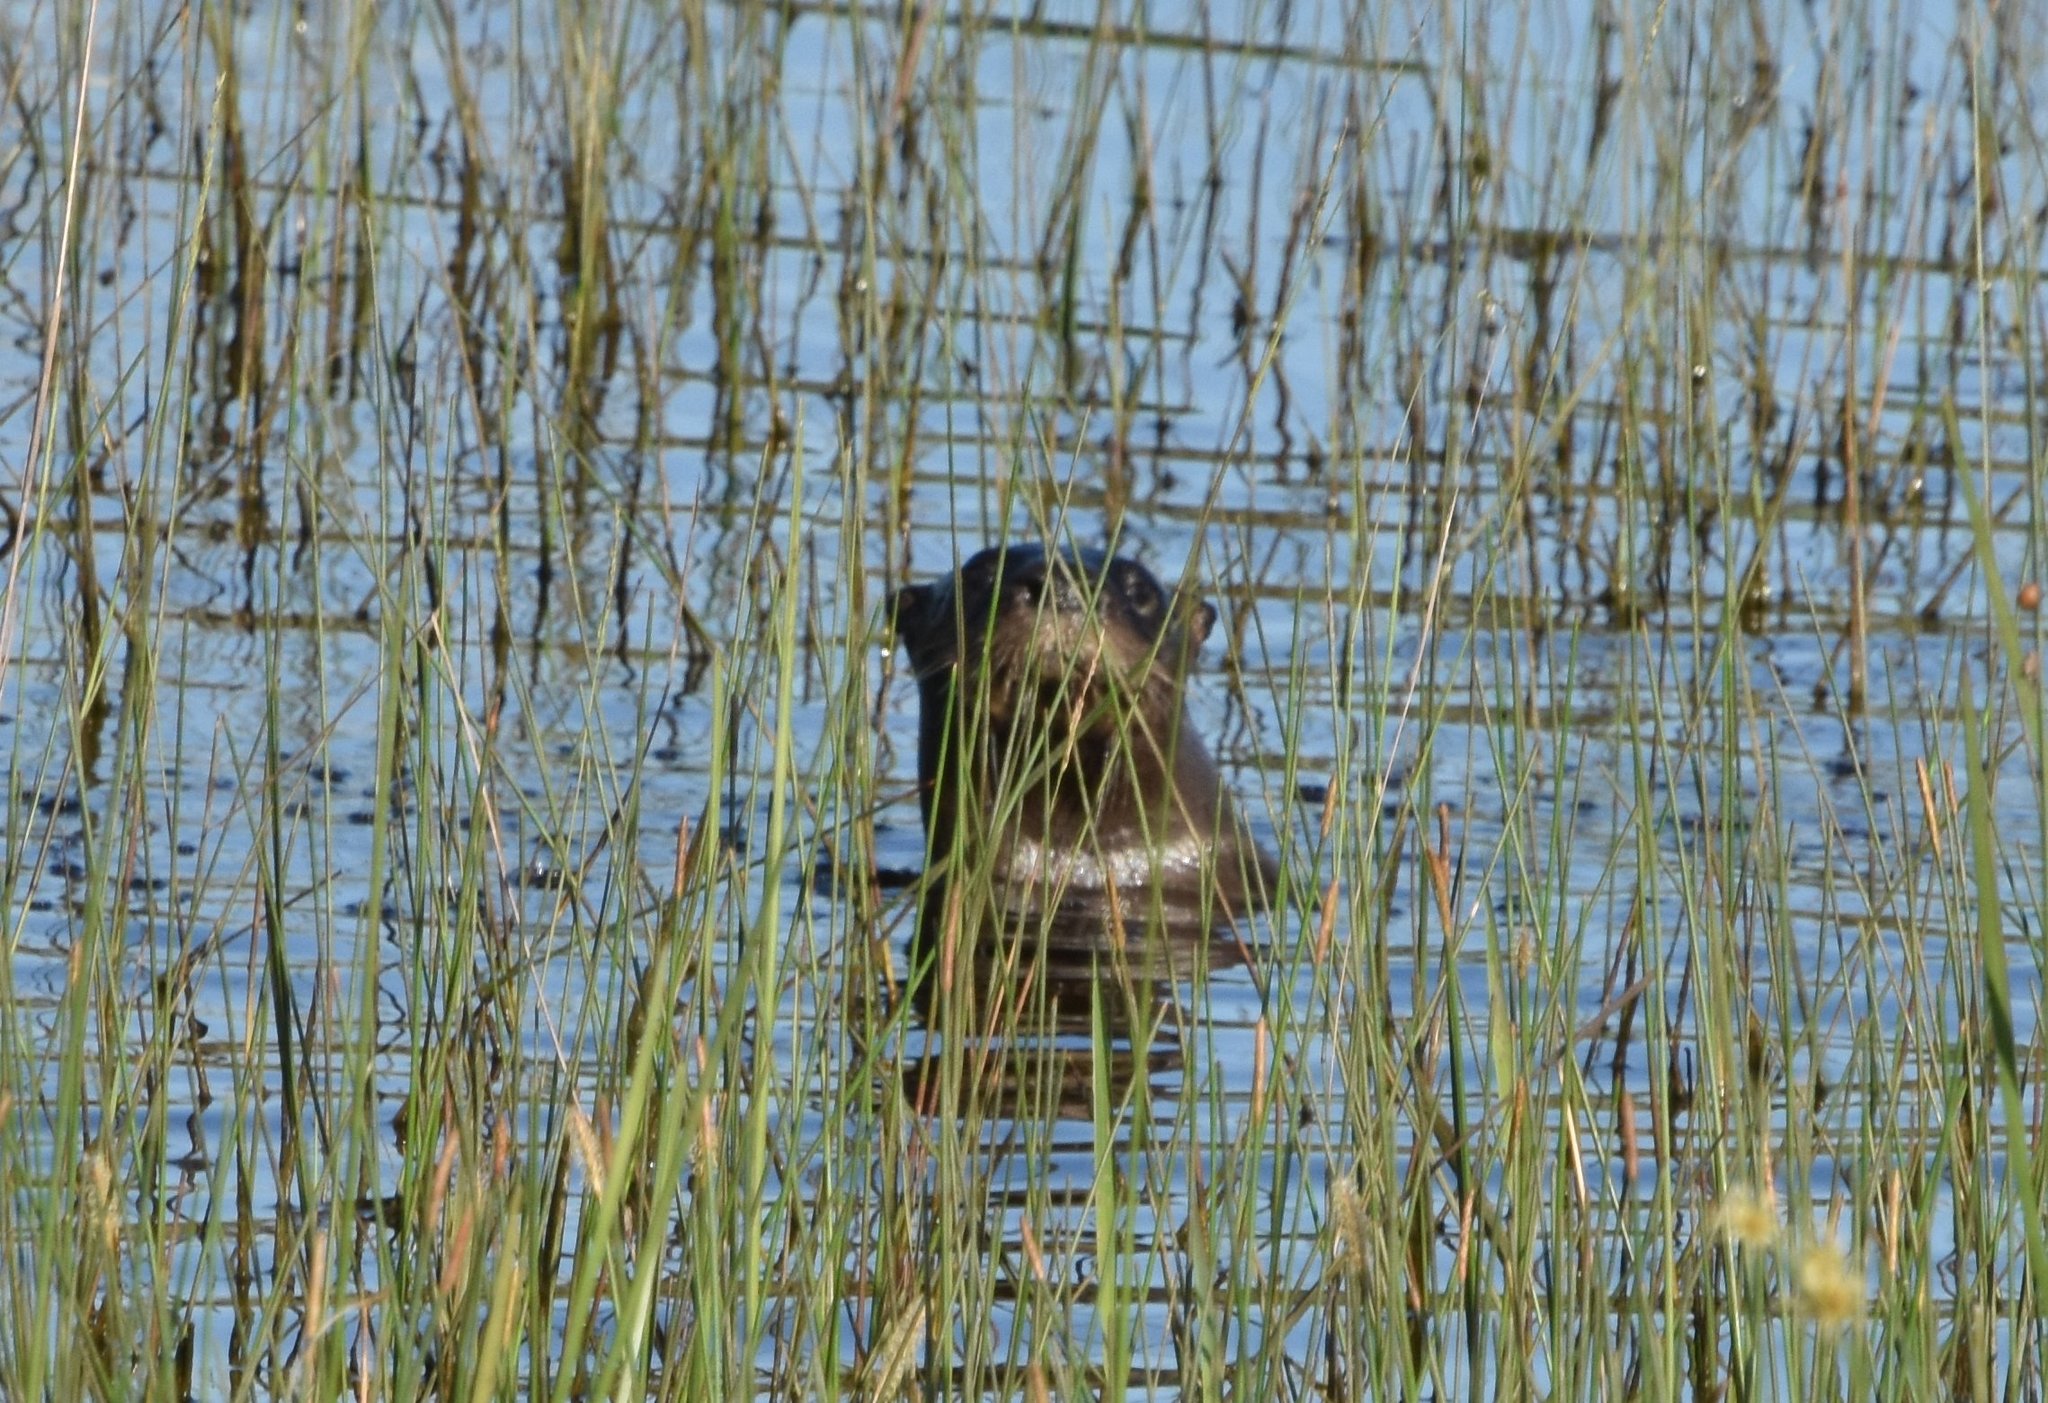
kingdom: Animalia
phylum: Chordata
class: Mammalia
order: Carnivora
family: Mustelidae
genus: Lontra
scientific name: Lontra canadensis
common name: North american river otter
